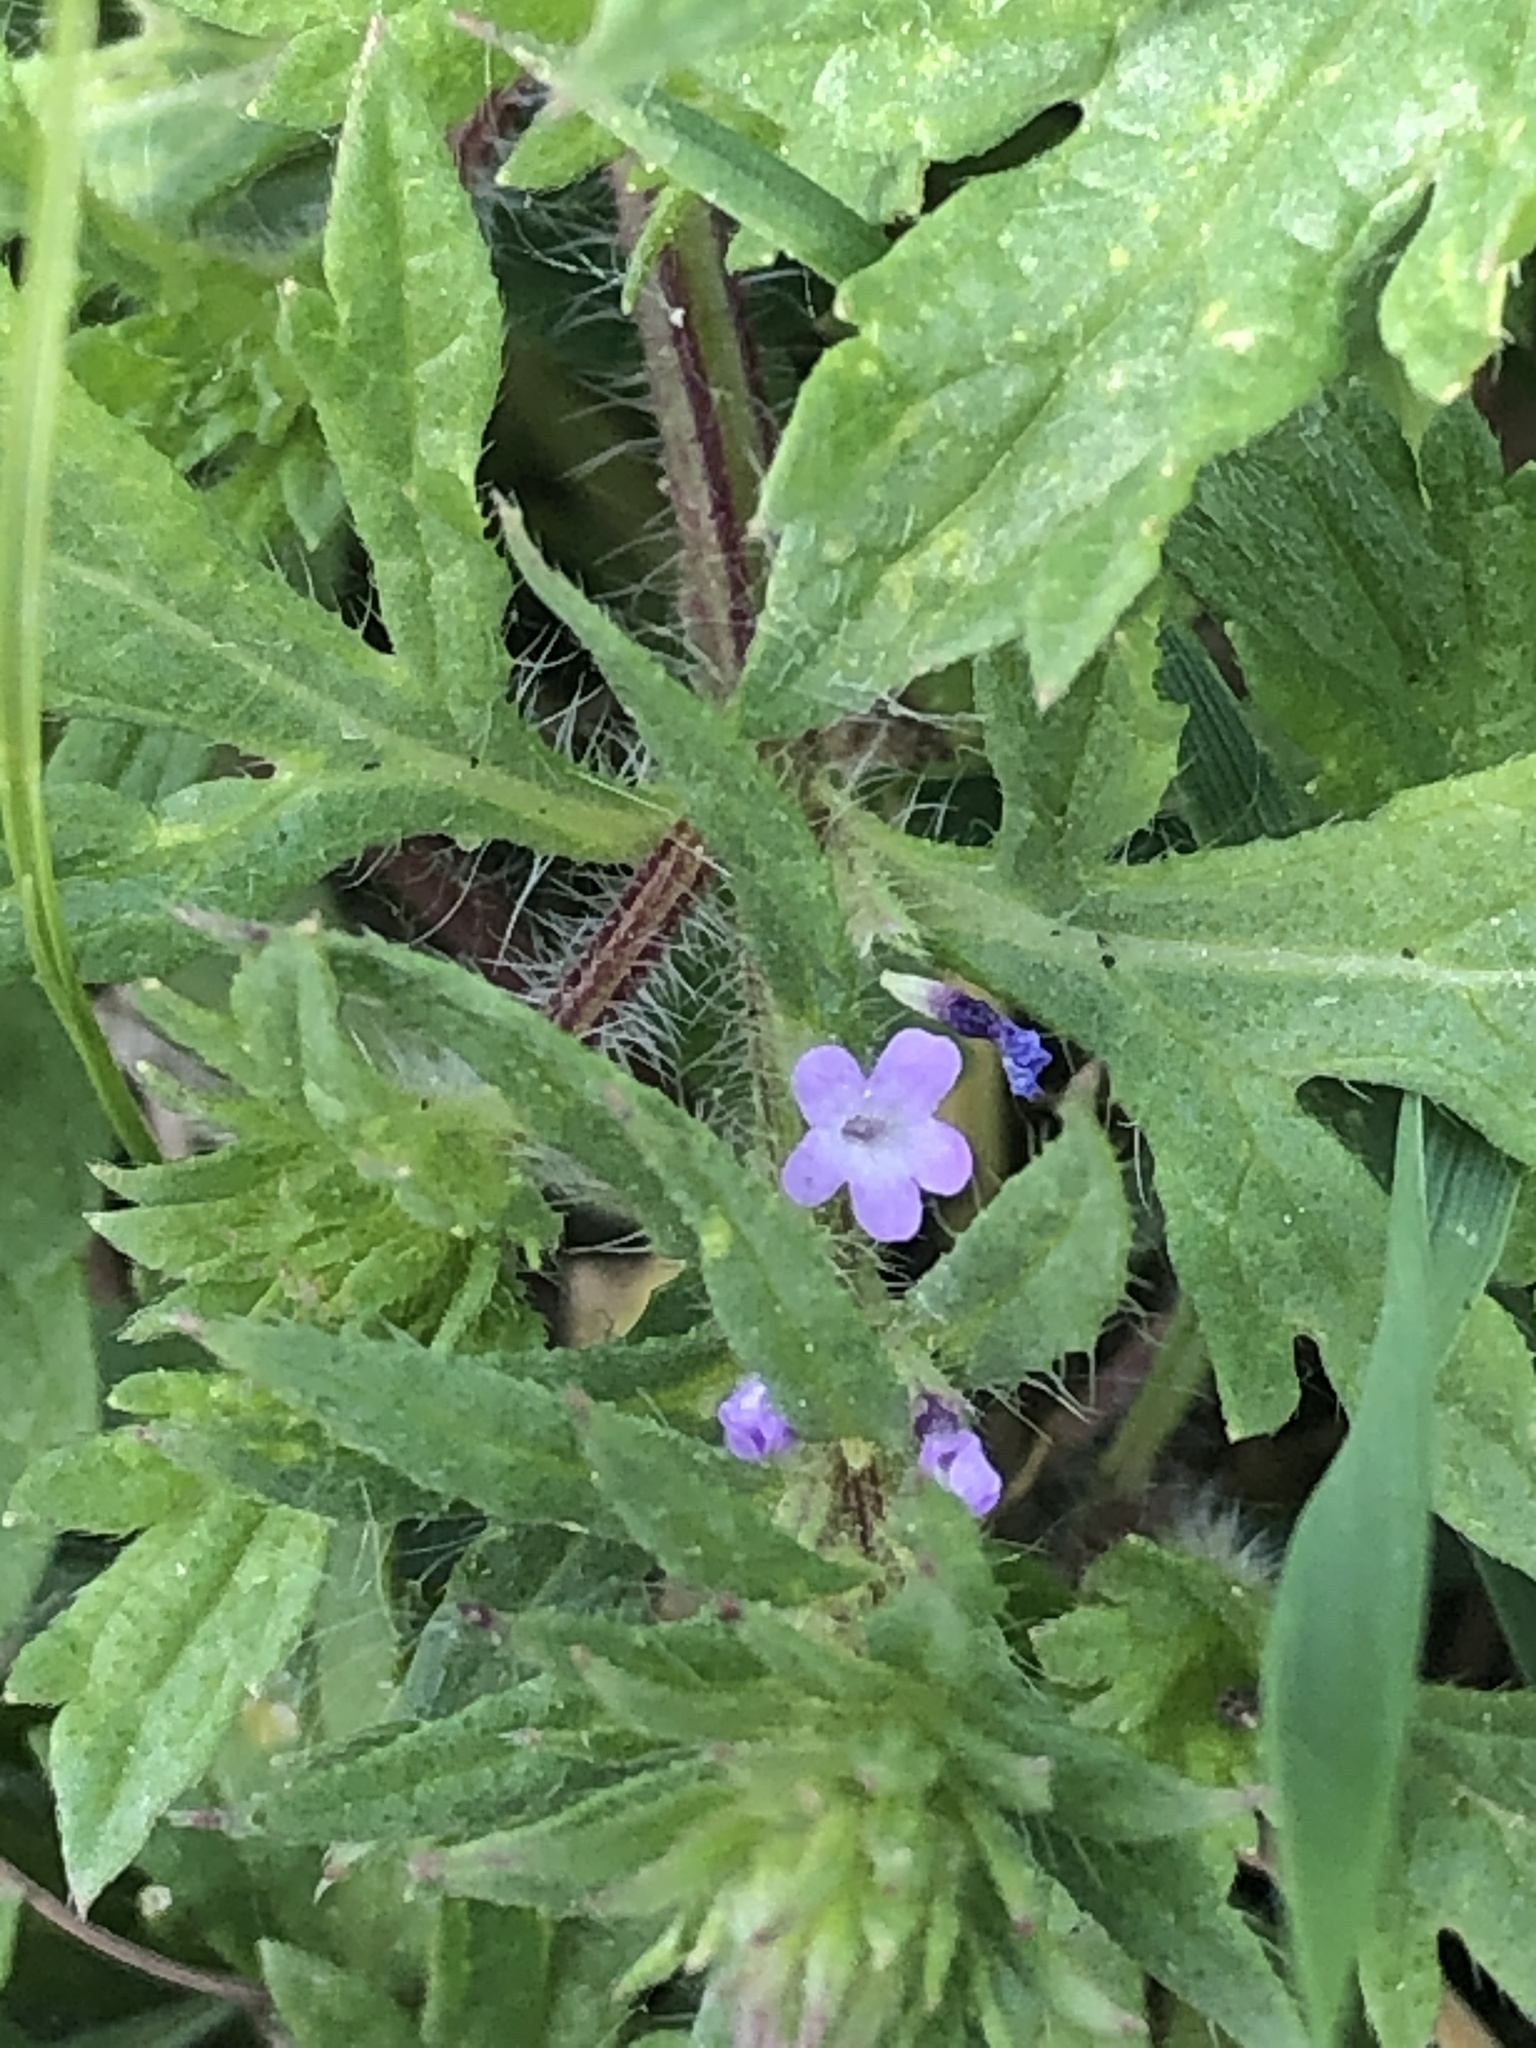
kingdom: Plantae
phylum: Tracheophyta
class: Magnoliopsida
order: Lamiales
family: Verbenaceae
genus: Verbena
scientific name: Verbena bracteata
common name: Bracted vervain
